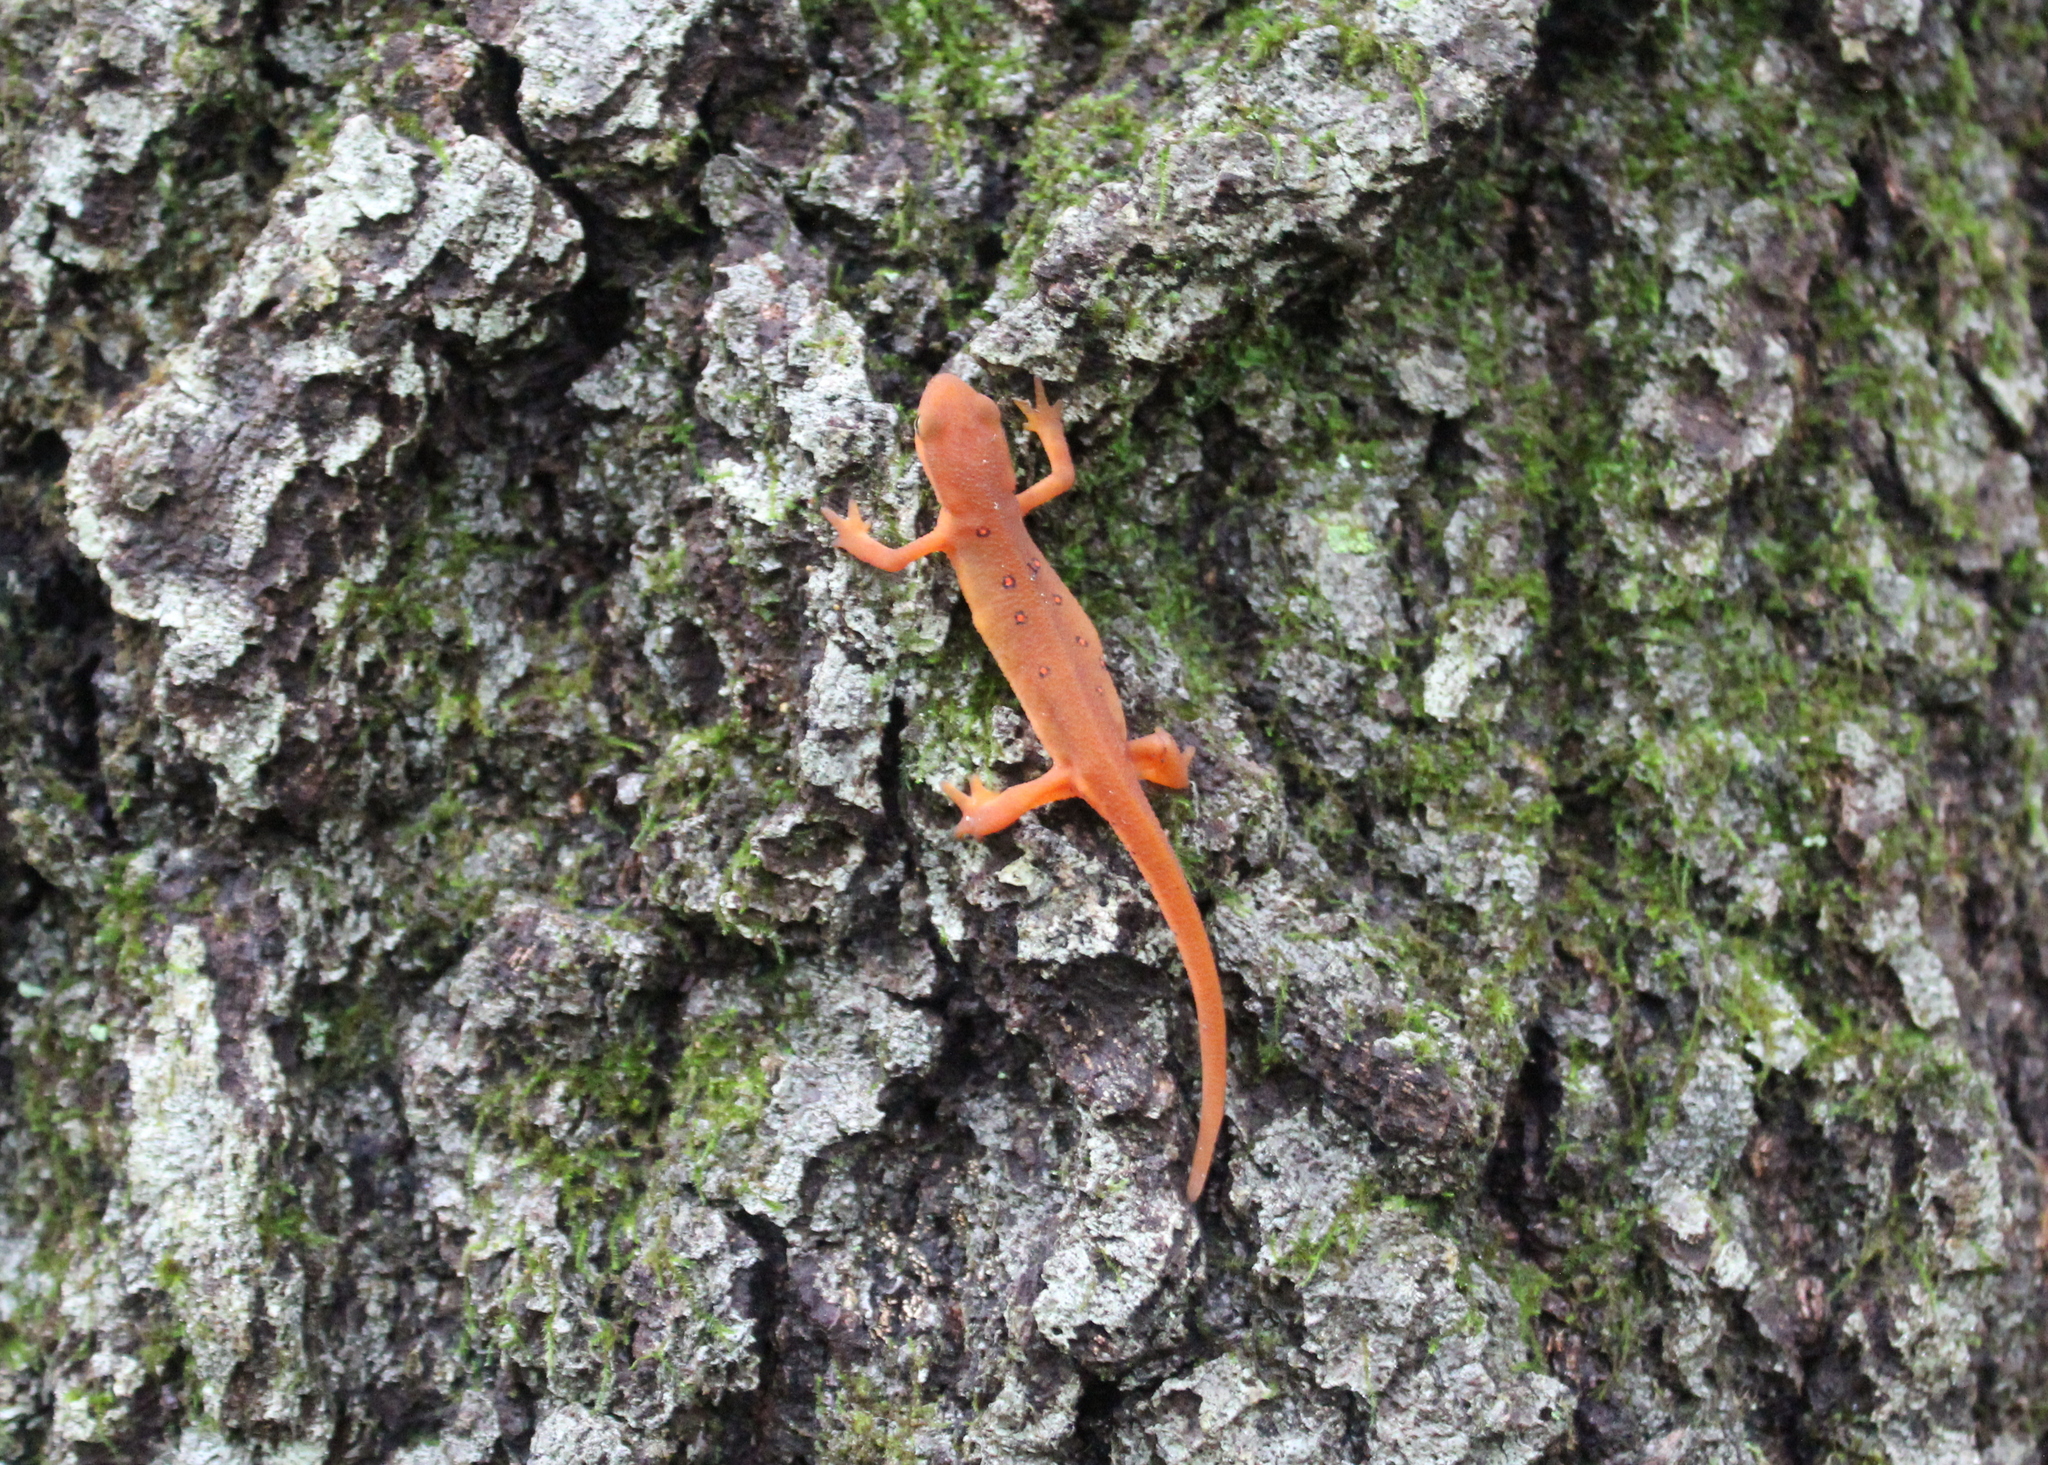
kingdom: Animalia
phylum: Chordata
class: Amphibia
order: Caudata
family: Salamandridae
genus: Notophthalmus
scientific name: Notophthalmus viridescens
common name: Eastern newt
